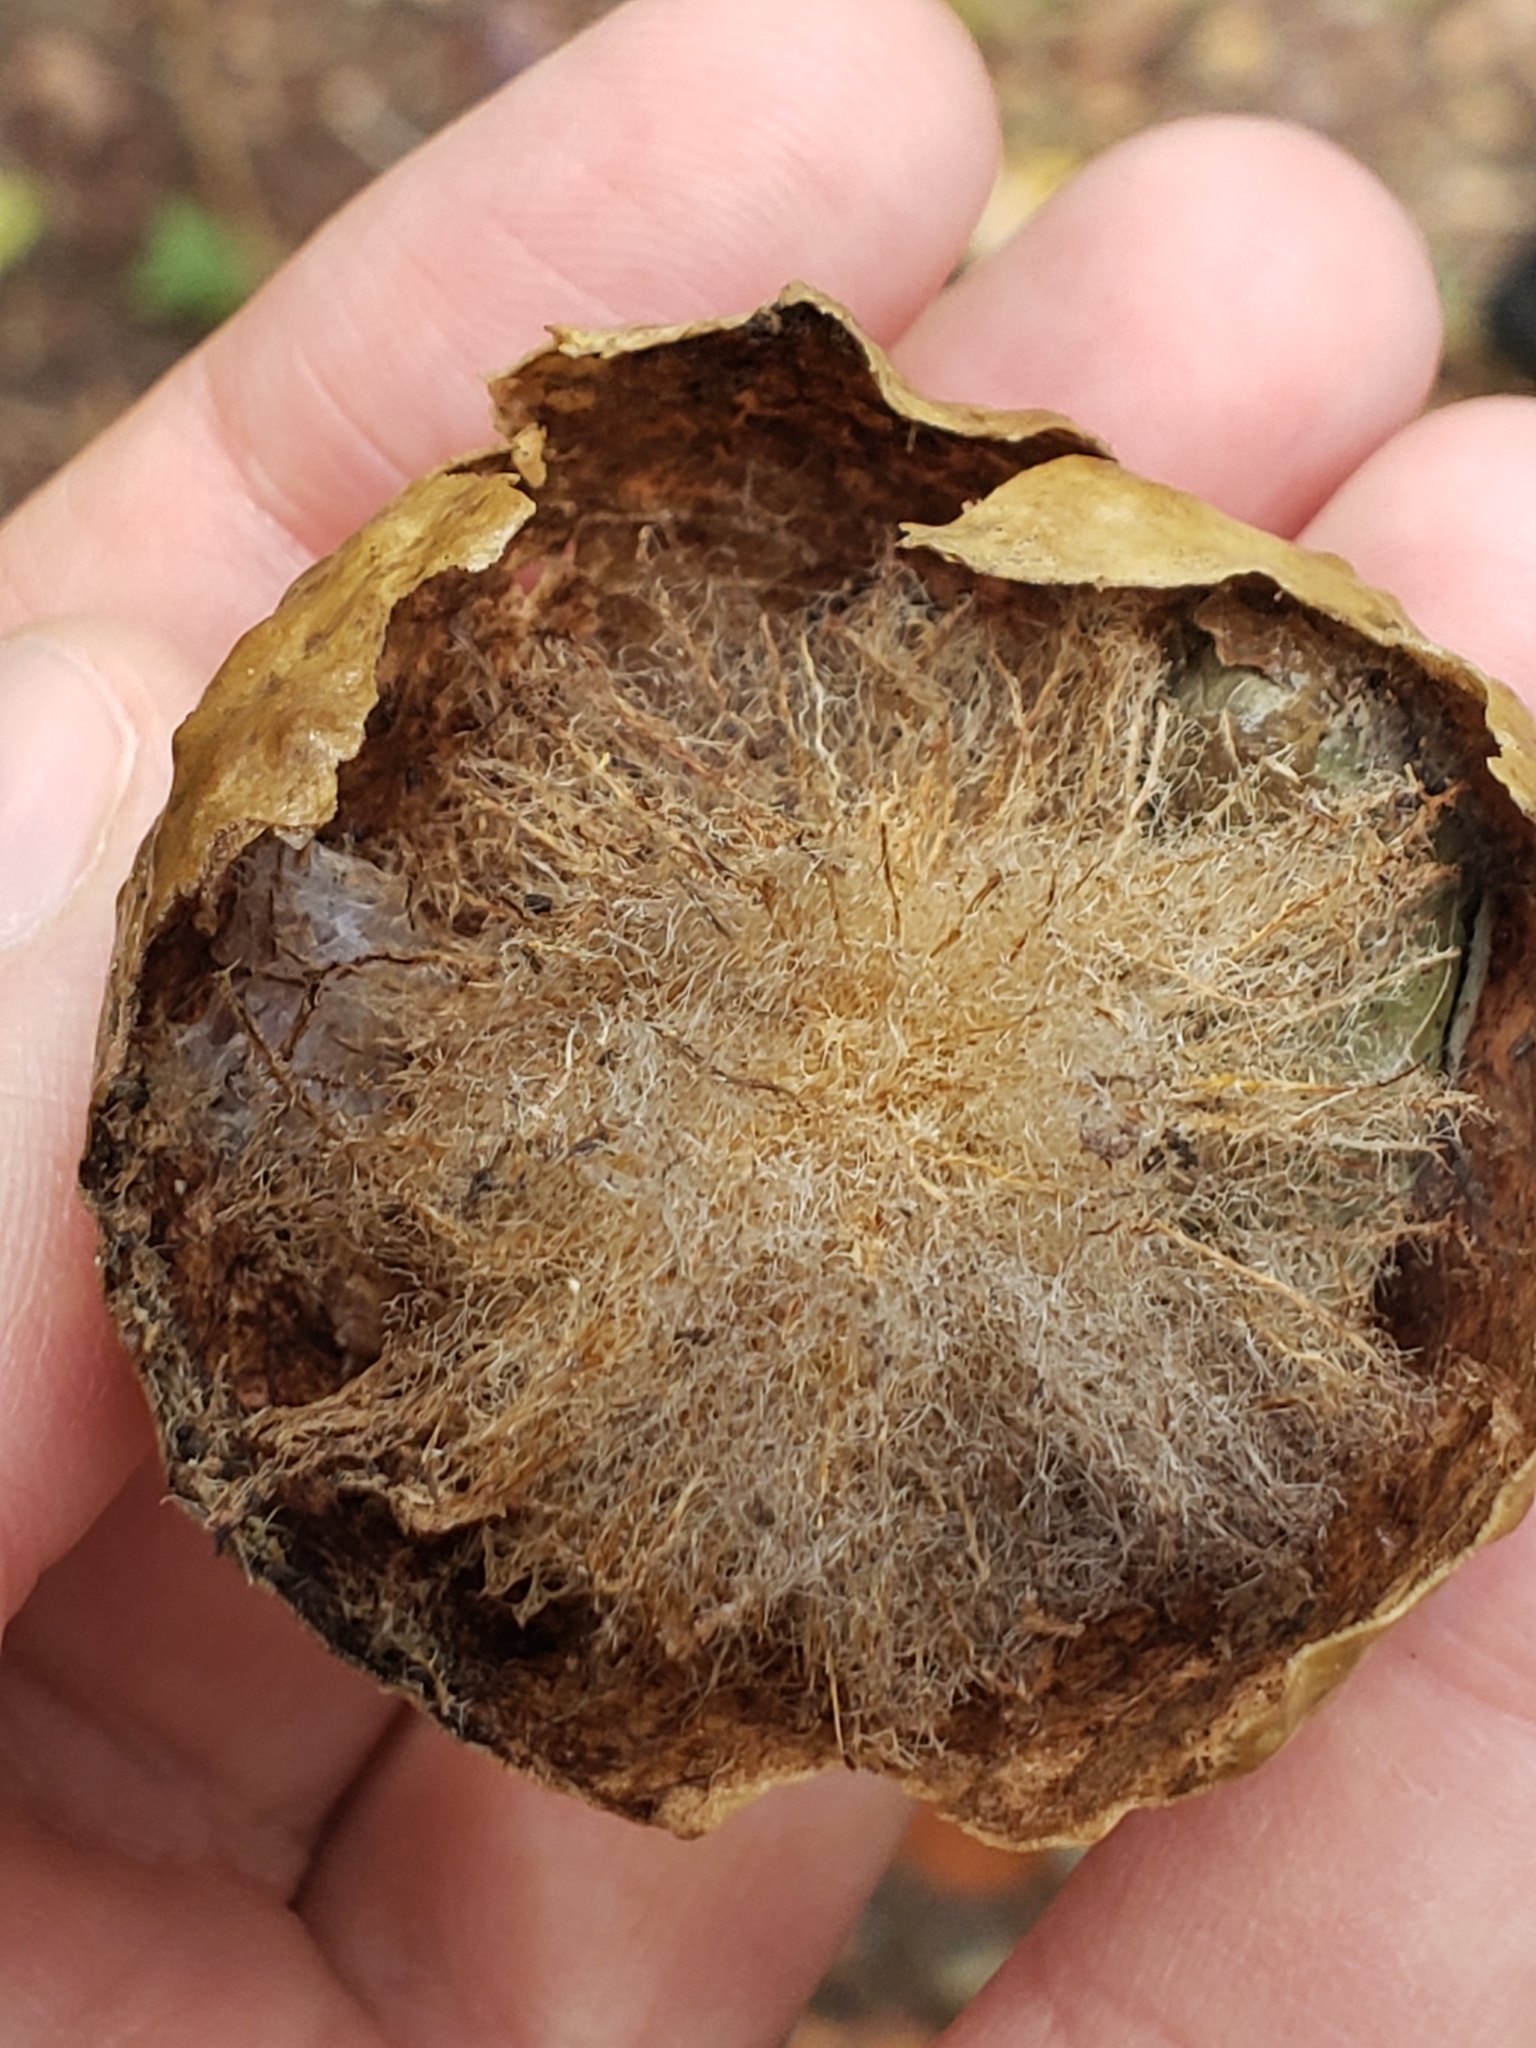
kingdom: Animalia
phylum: Arthropoda
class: Insecta
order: Hymenoptera
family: Cynipidae
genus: Amphibolips
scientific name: Amphibolips
